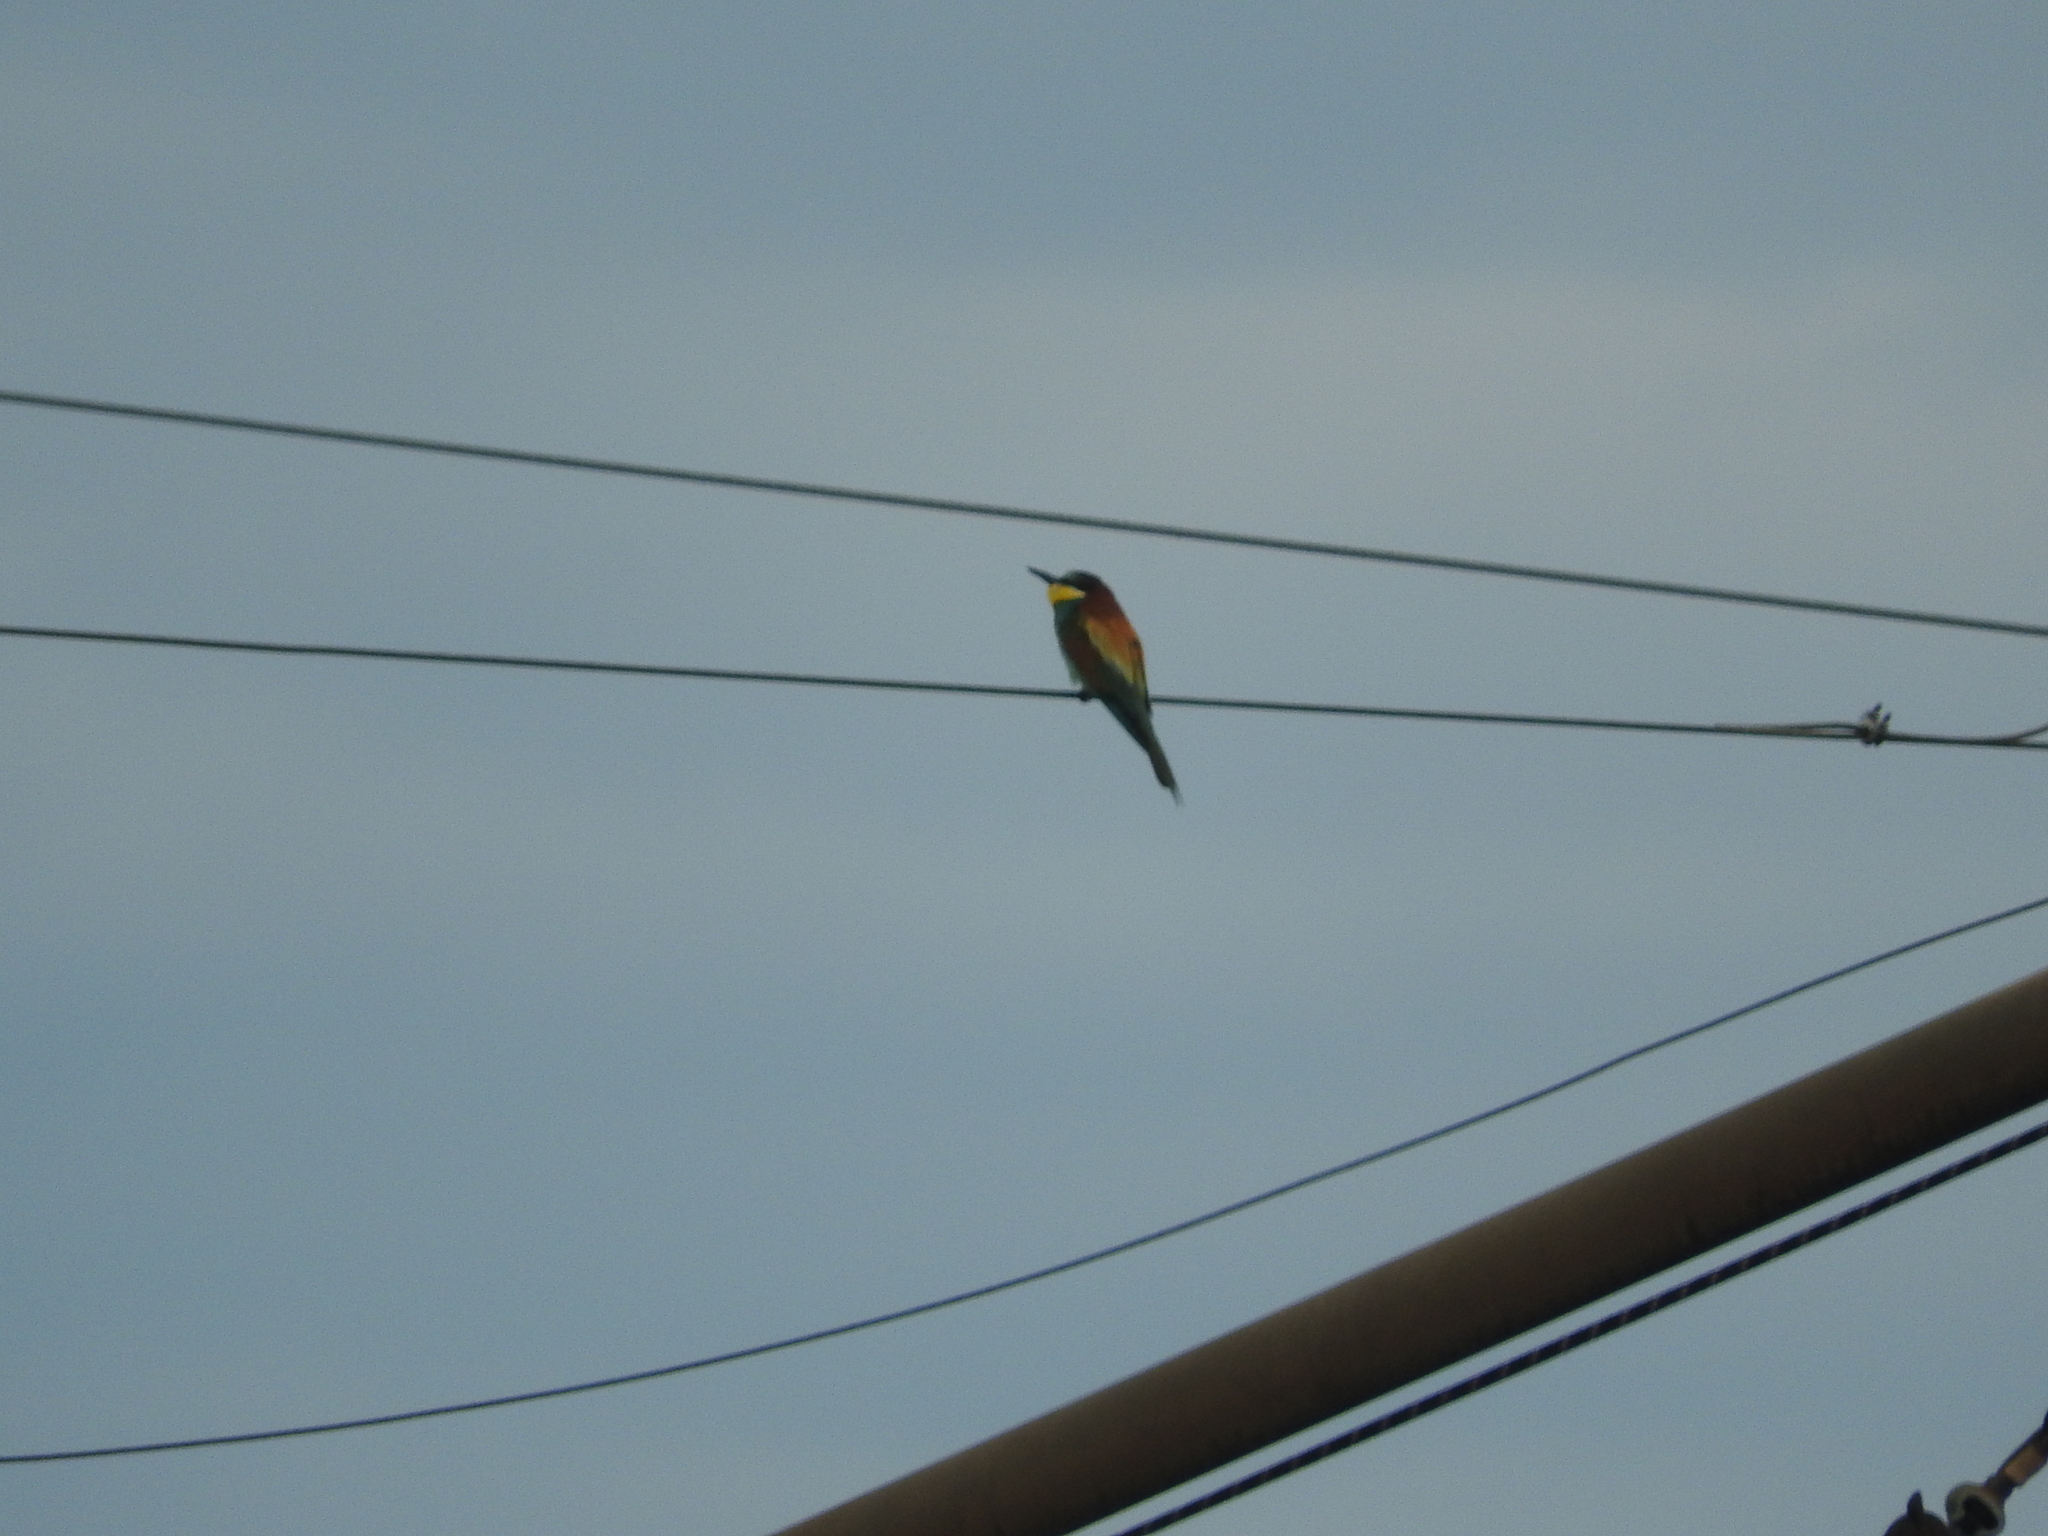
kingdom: Animalia
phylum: Chordata
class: Aves
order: Coraciiformes
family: Meropidae
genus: Merops
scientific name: Merops apiaster
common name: European bee-eater
